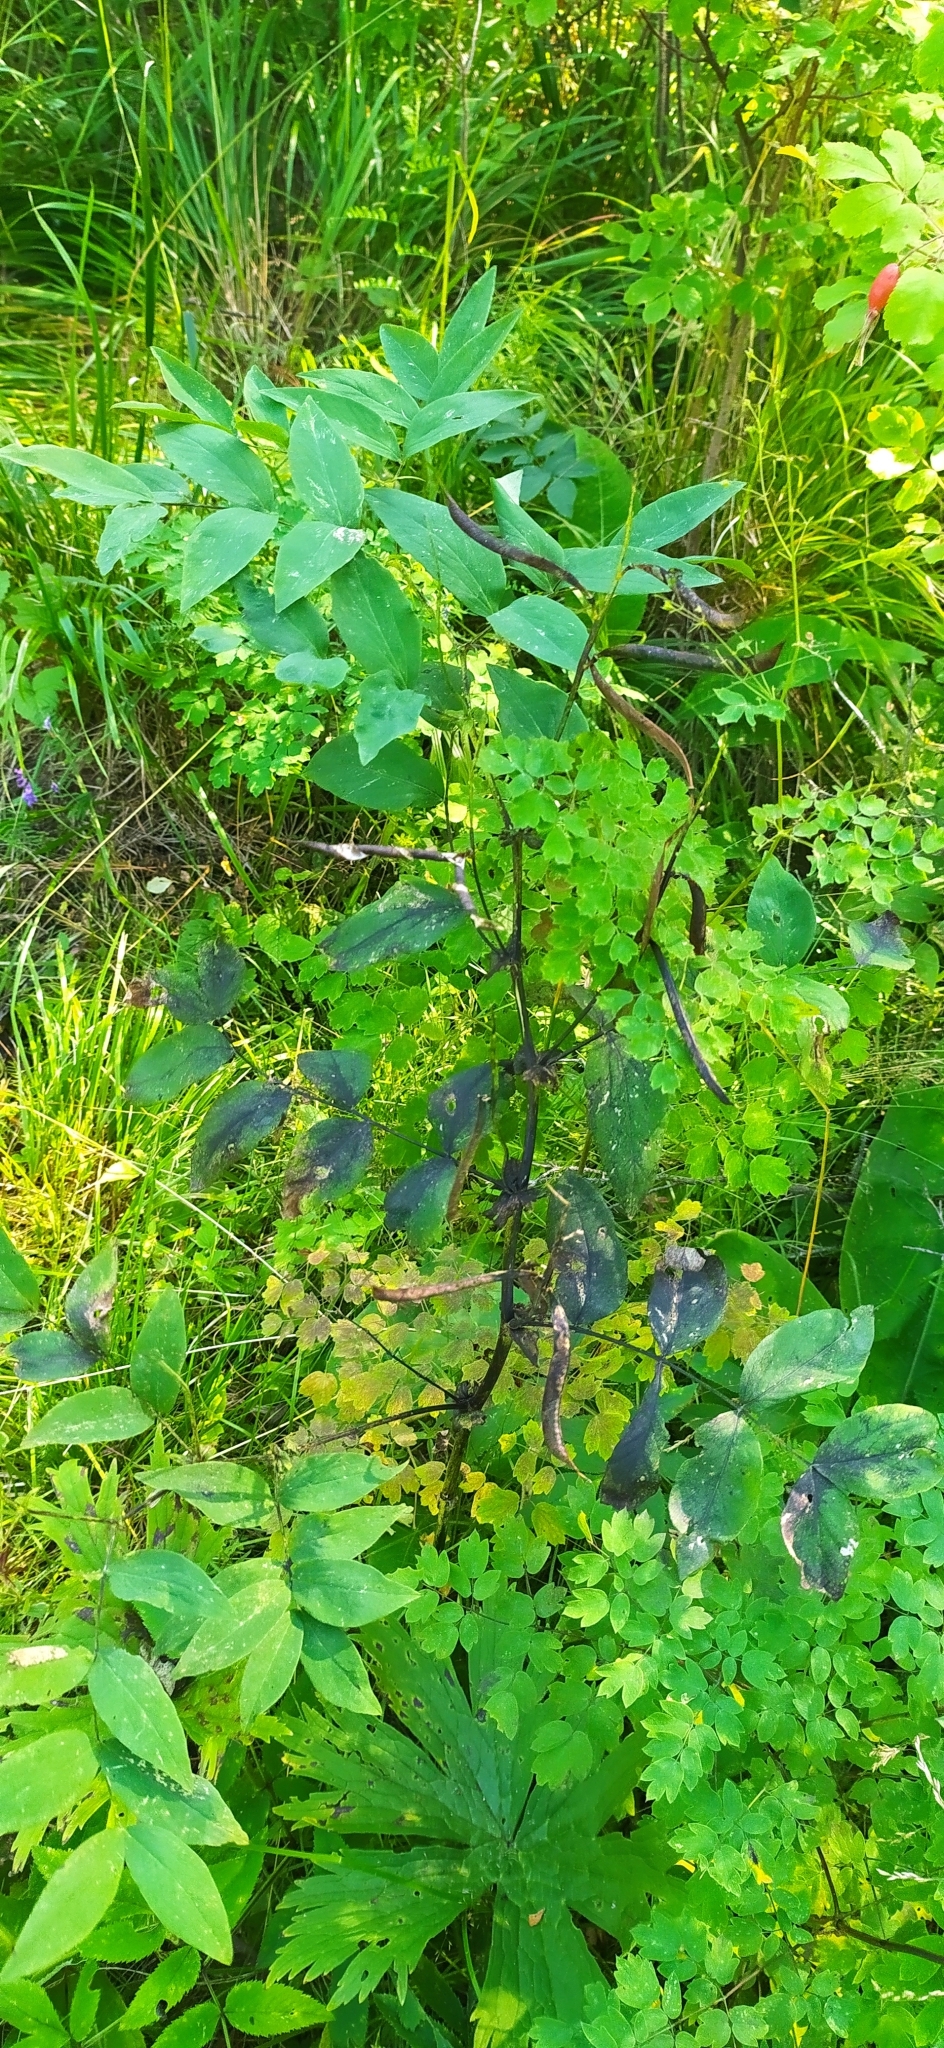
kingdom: Plantae
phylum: Tracheophyta
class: Magnoliopsida
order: Fabales
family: Fabaceae
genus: Lathyrus
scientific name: Lathyrus gmelinii
